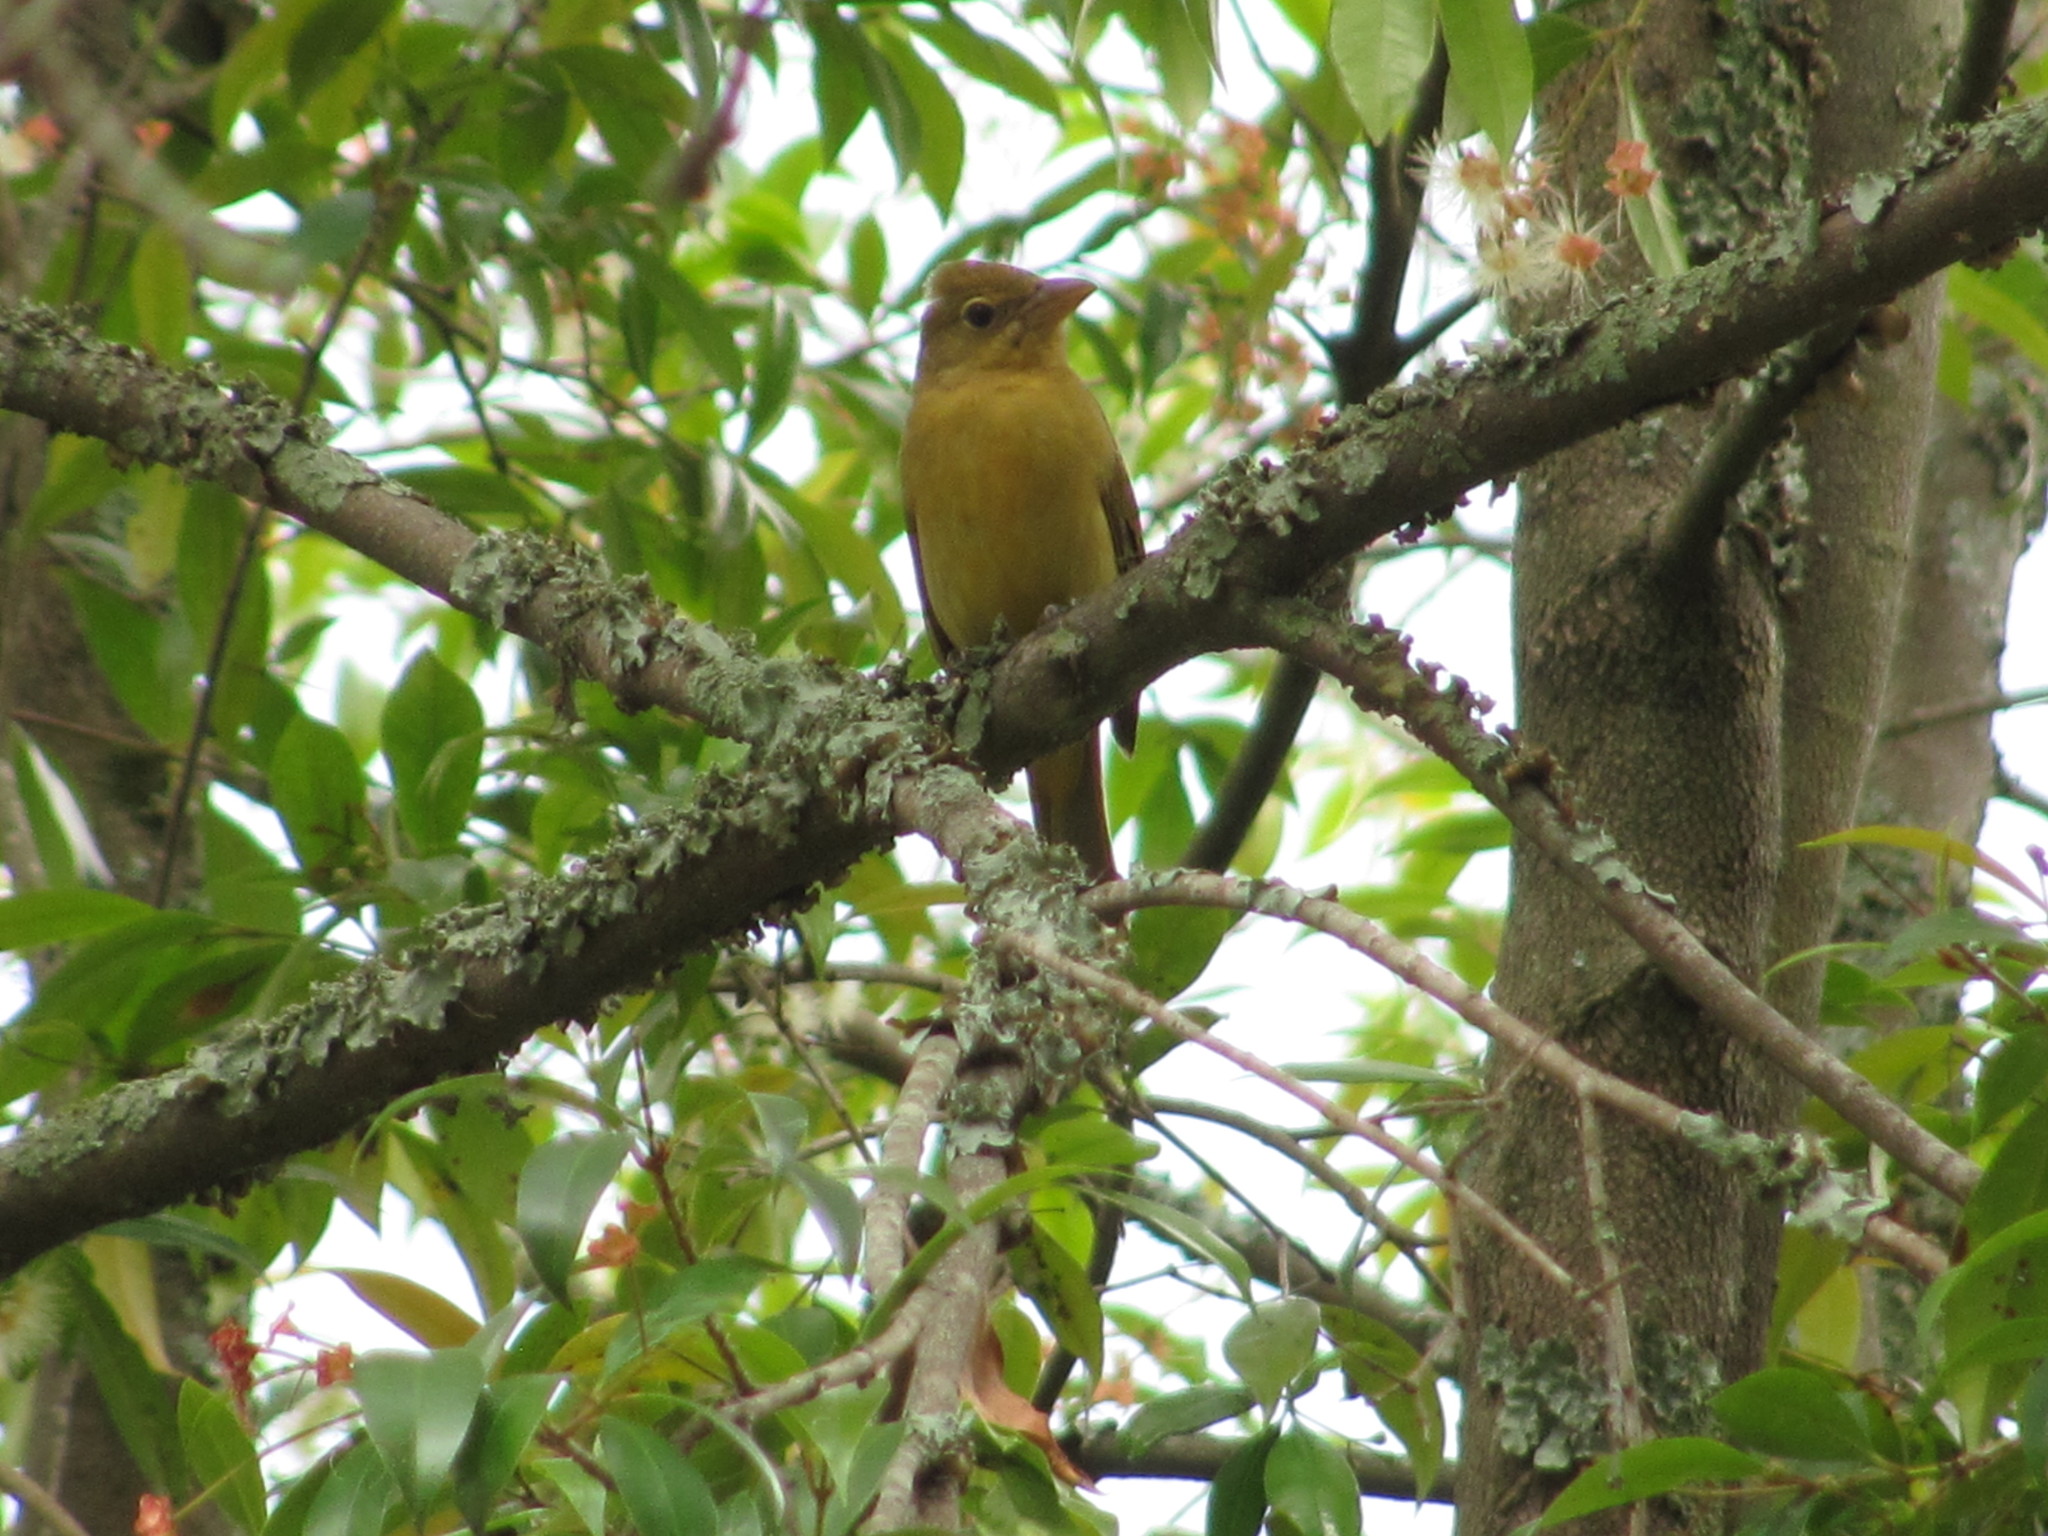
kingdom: Animalia
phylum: Chordata
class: Aves
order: Passeriformes
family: Cardinalidae
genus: Piranga
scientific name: Piranga rubra
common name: Summer tanager
